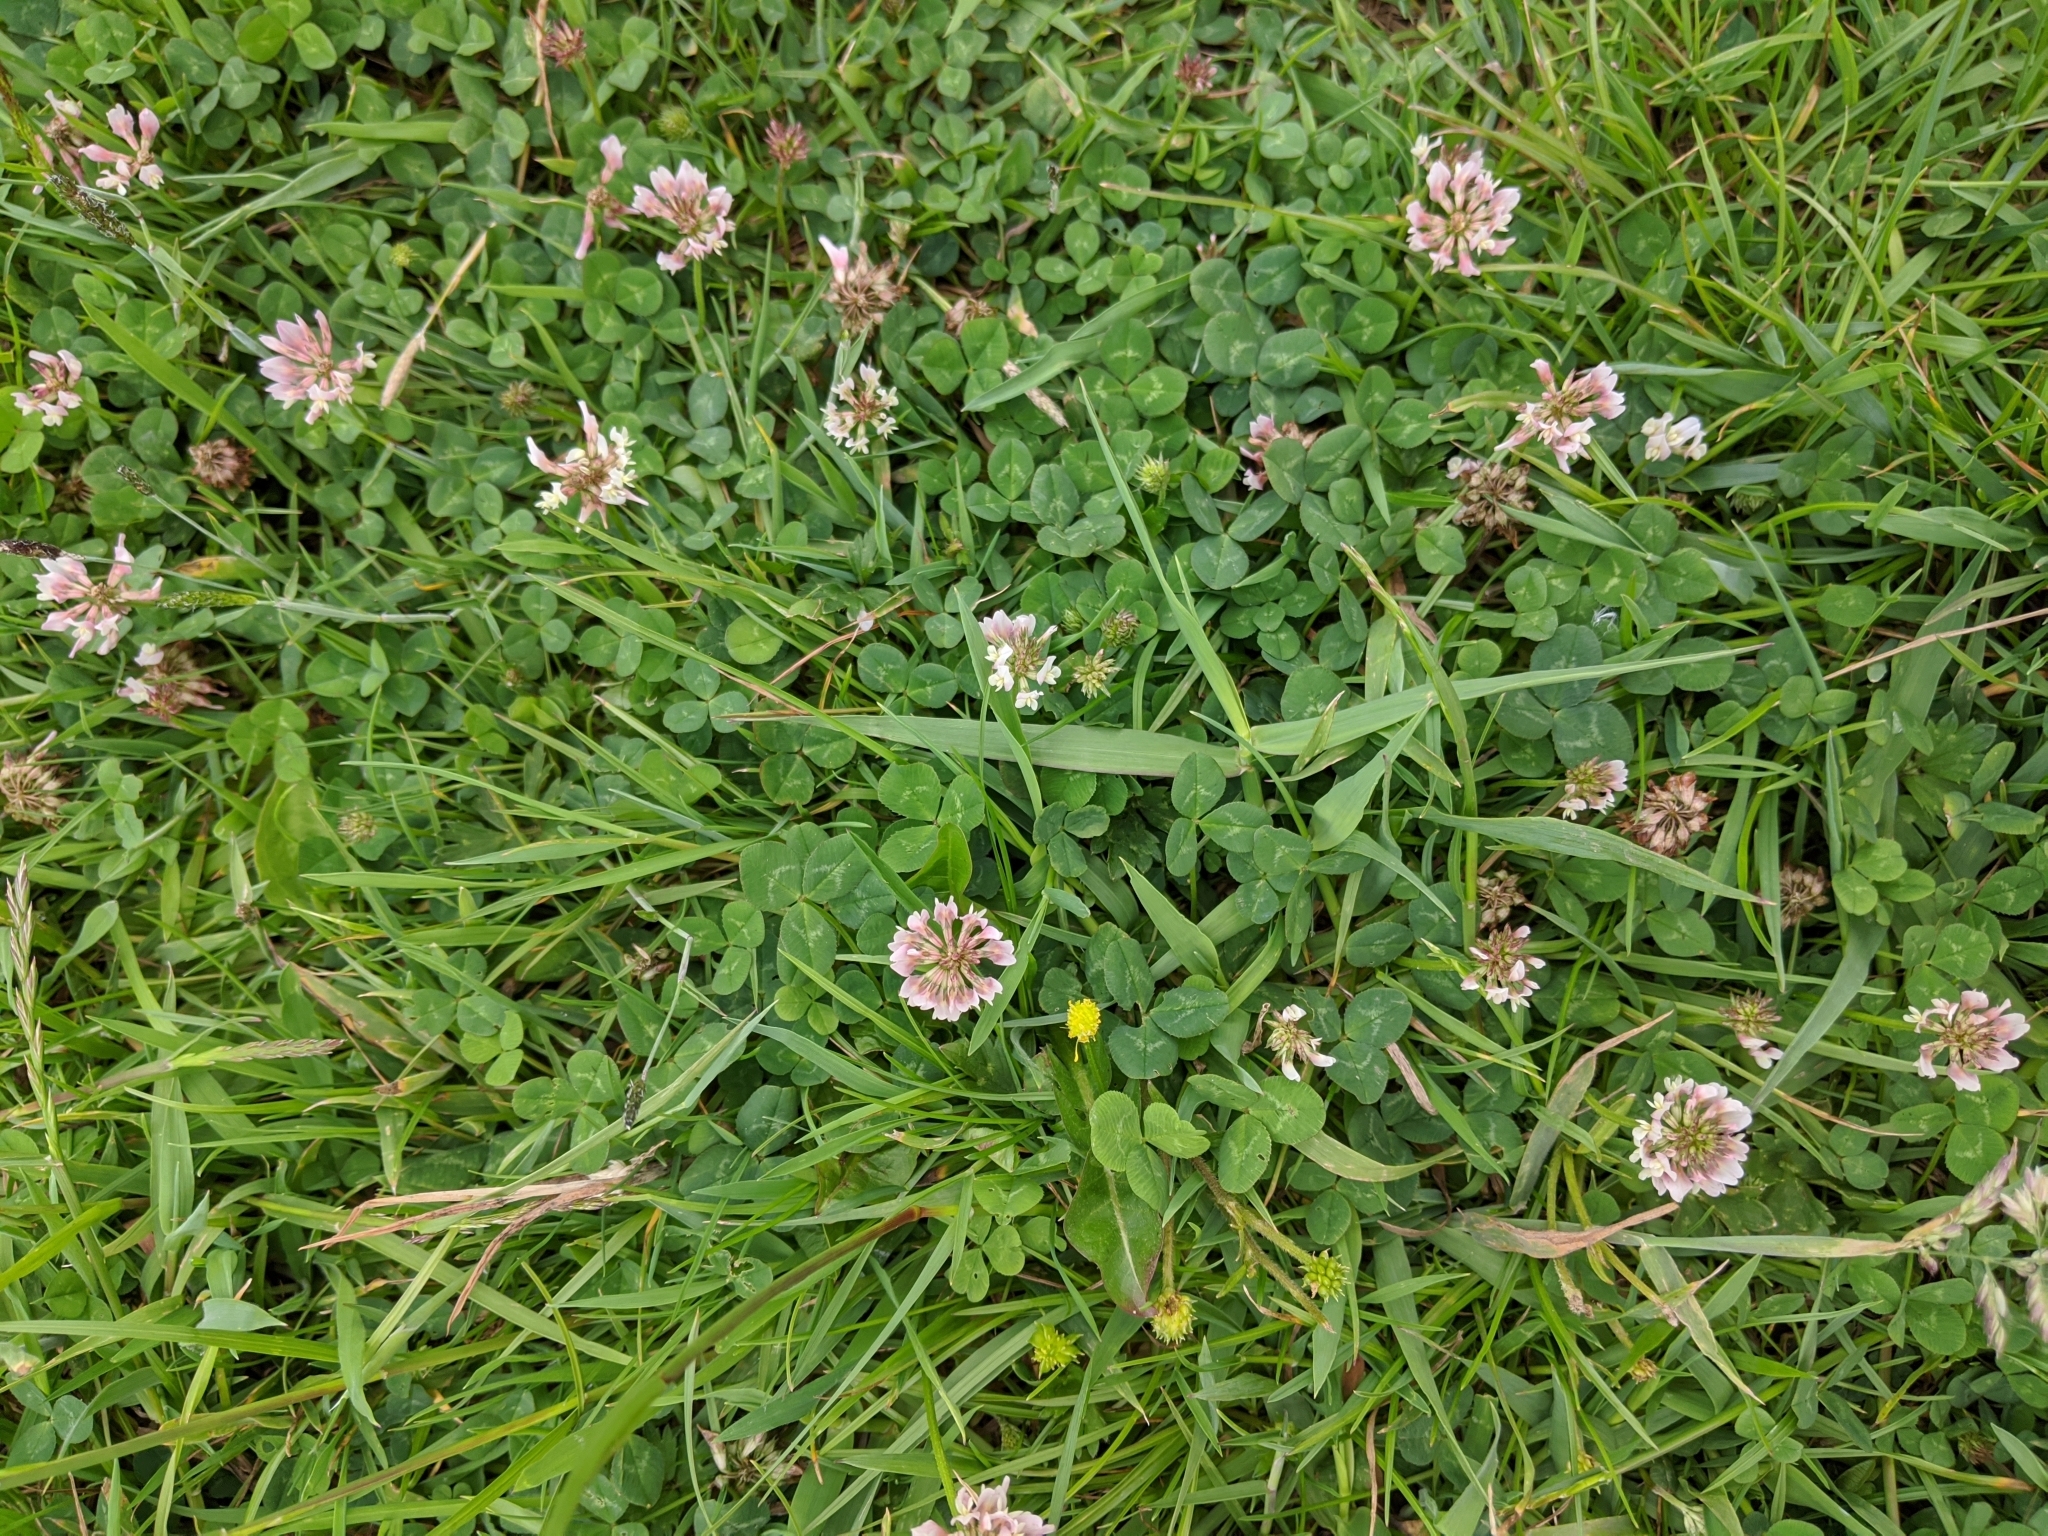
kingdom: Plantae
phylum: Tracheophyta
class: Magnoliopsida
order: Fabales
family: Fabaceae
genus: Trifolium
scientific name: Trifolium repens
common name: White clover
